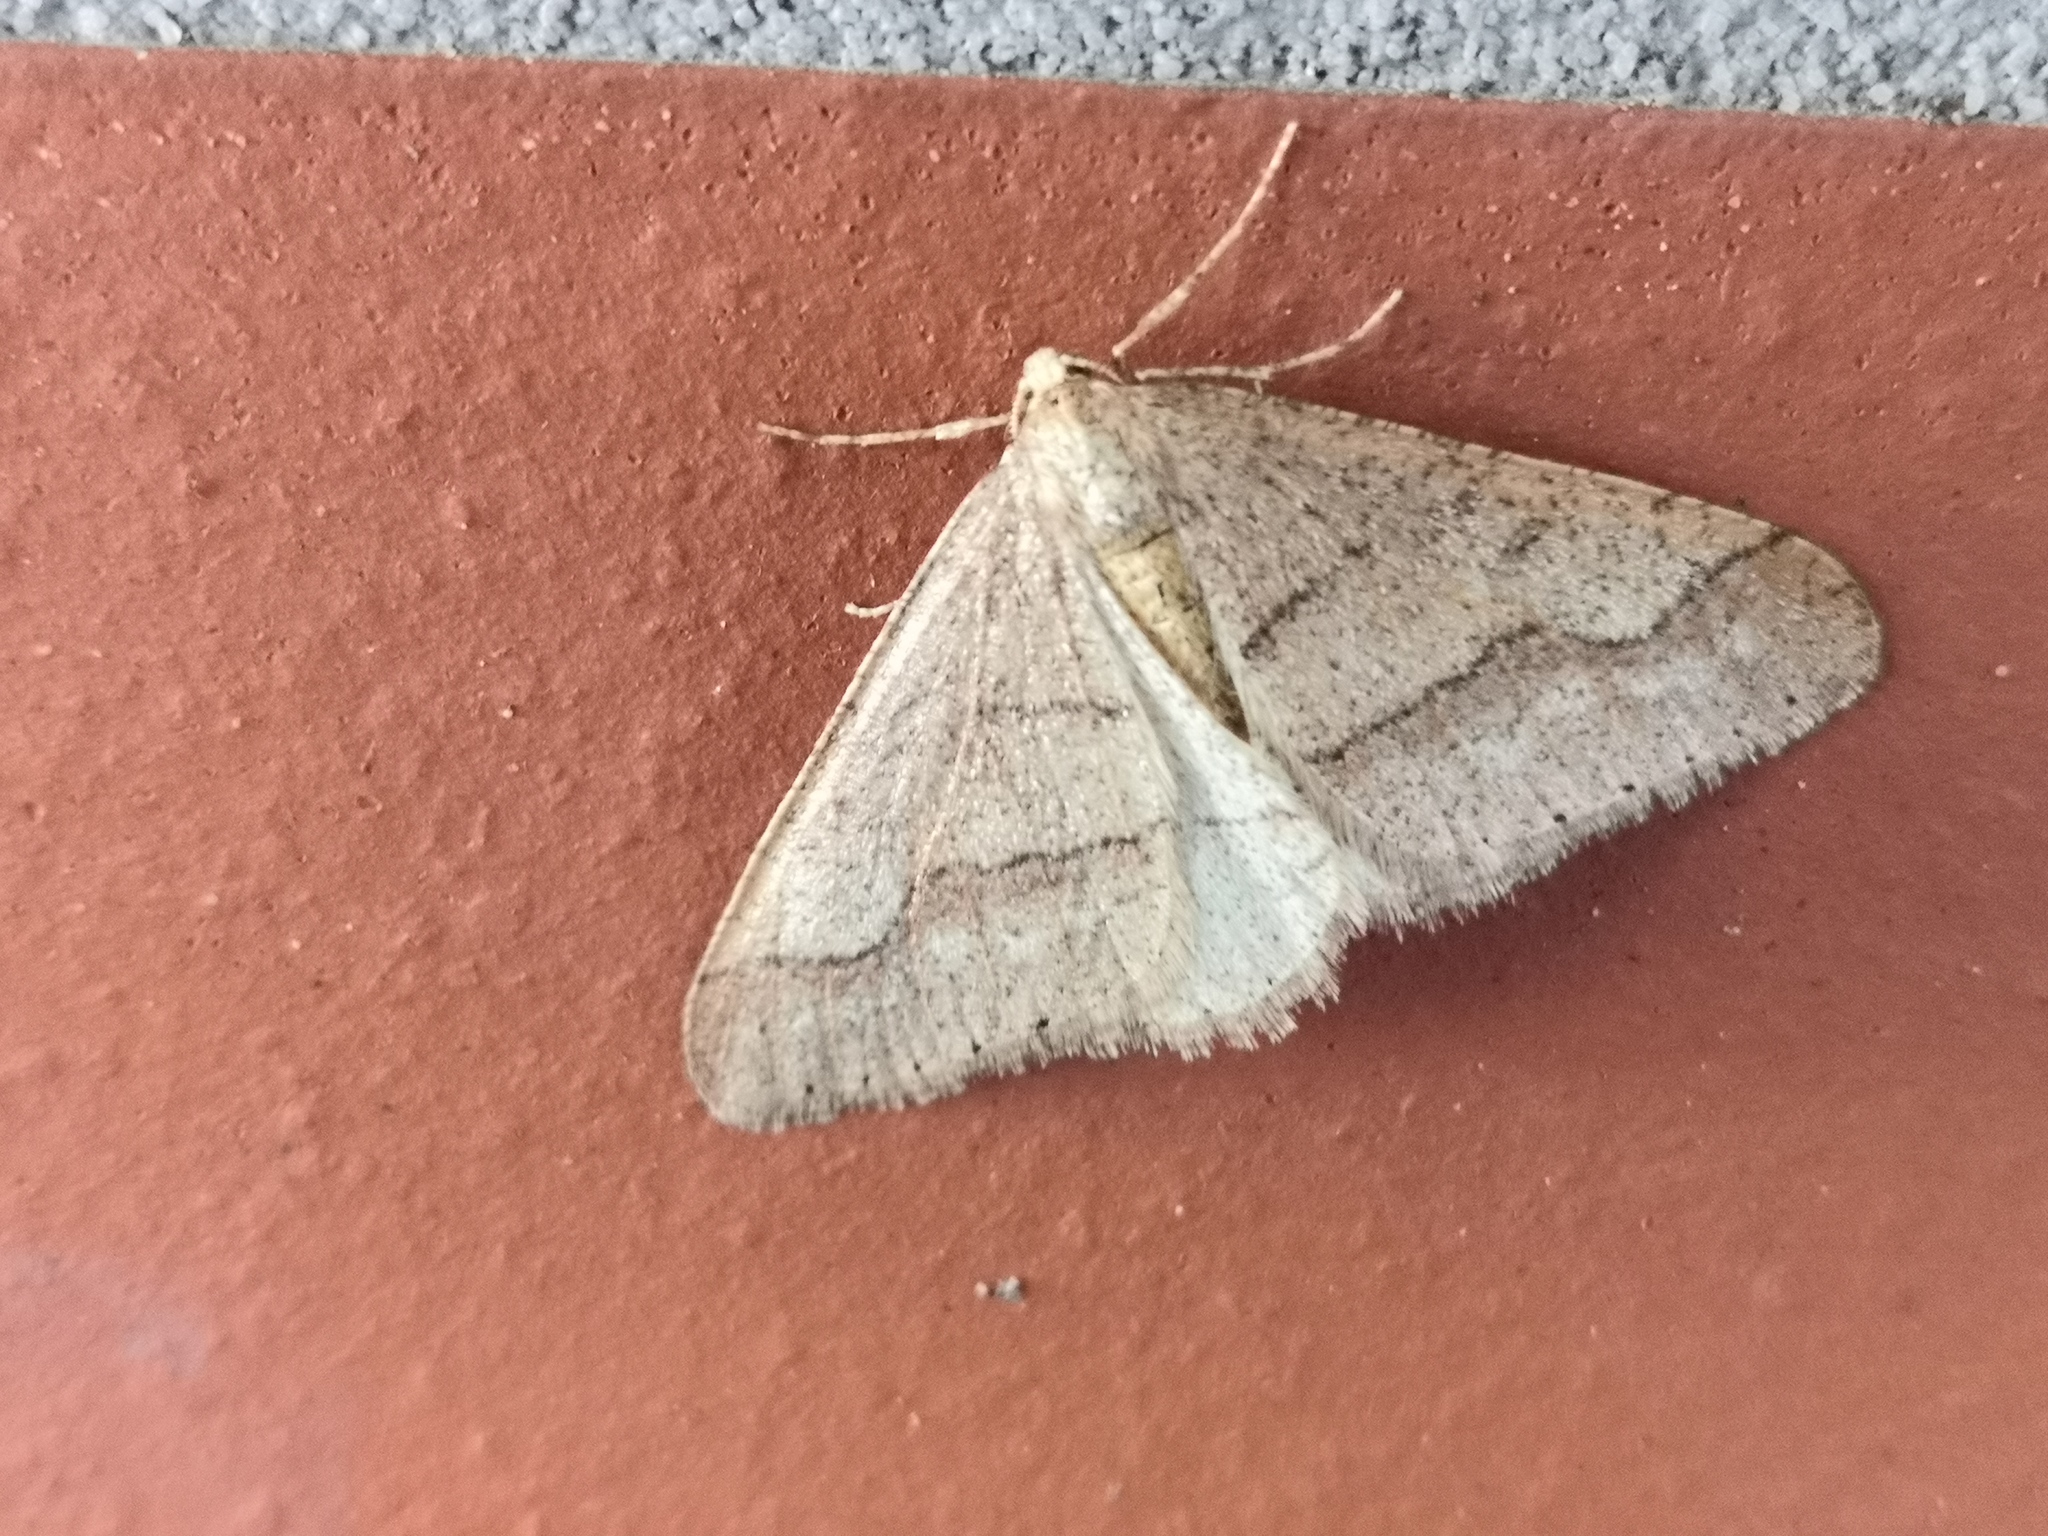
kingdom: Animalia
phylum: Arthropoda
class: Insecta
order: Lepidoptera
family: Geometridae
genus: Agriopis
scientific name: Agriopis marginaria
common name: Dotted border
